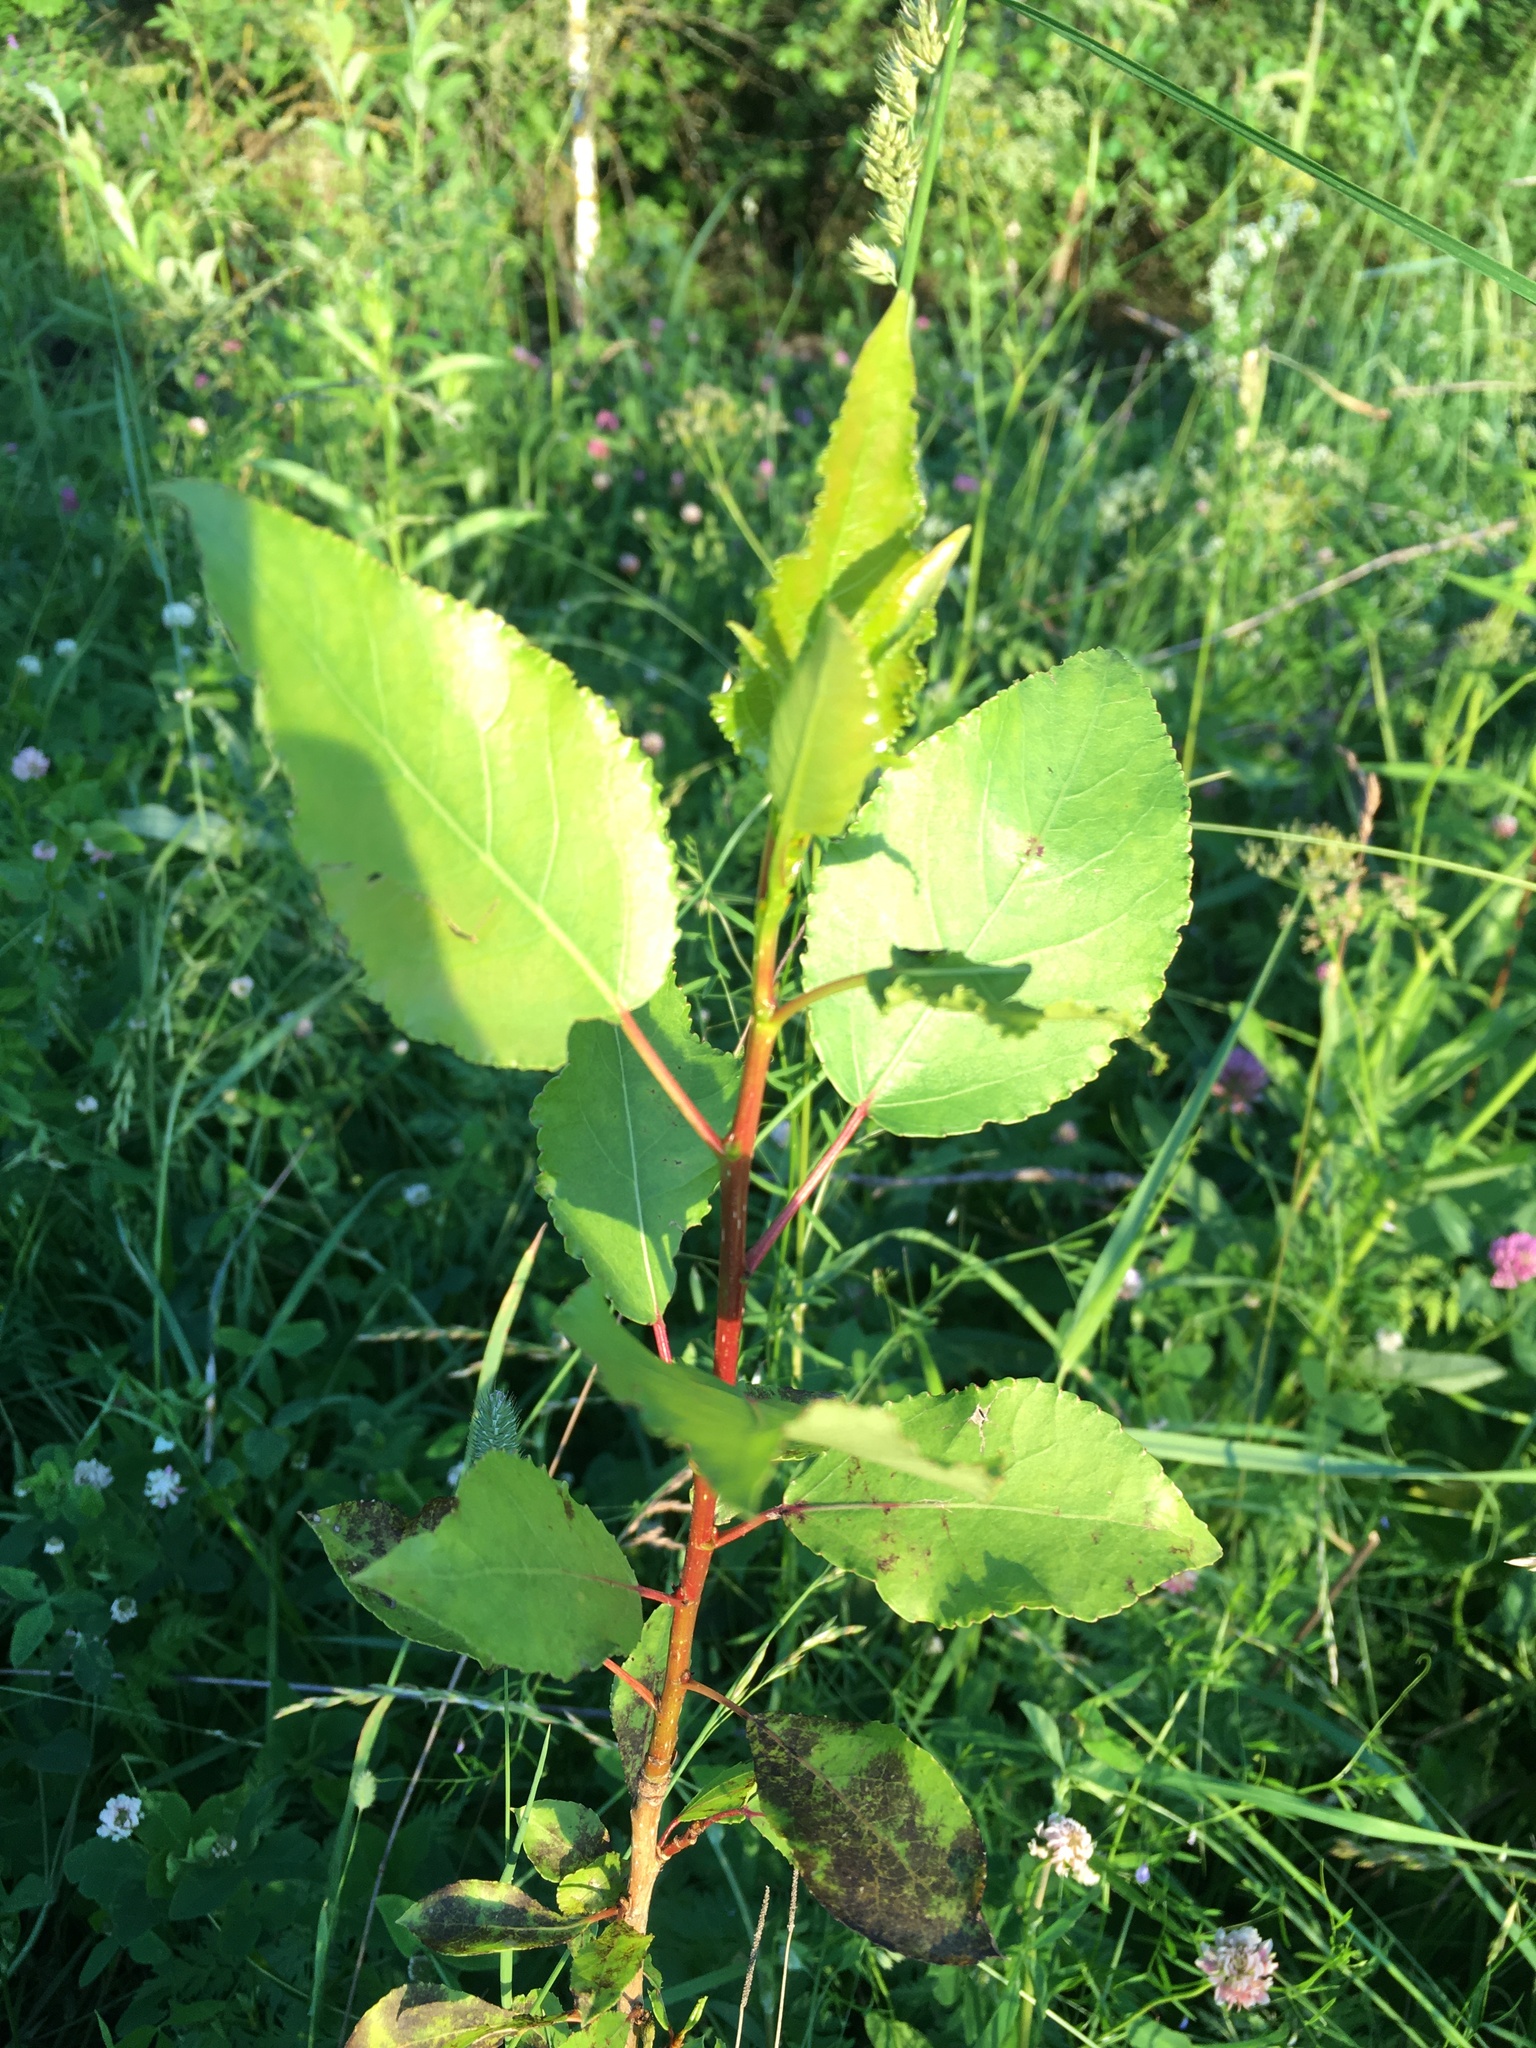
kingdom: Plantae
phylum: Tracheophyta
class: Magnoliopsida
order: Malpighiales
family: Salicaceae
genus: Populus
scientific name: Populus
